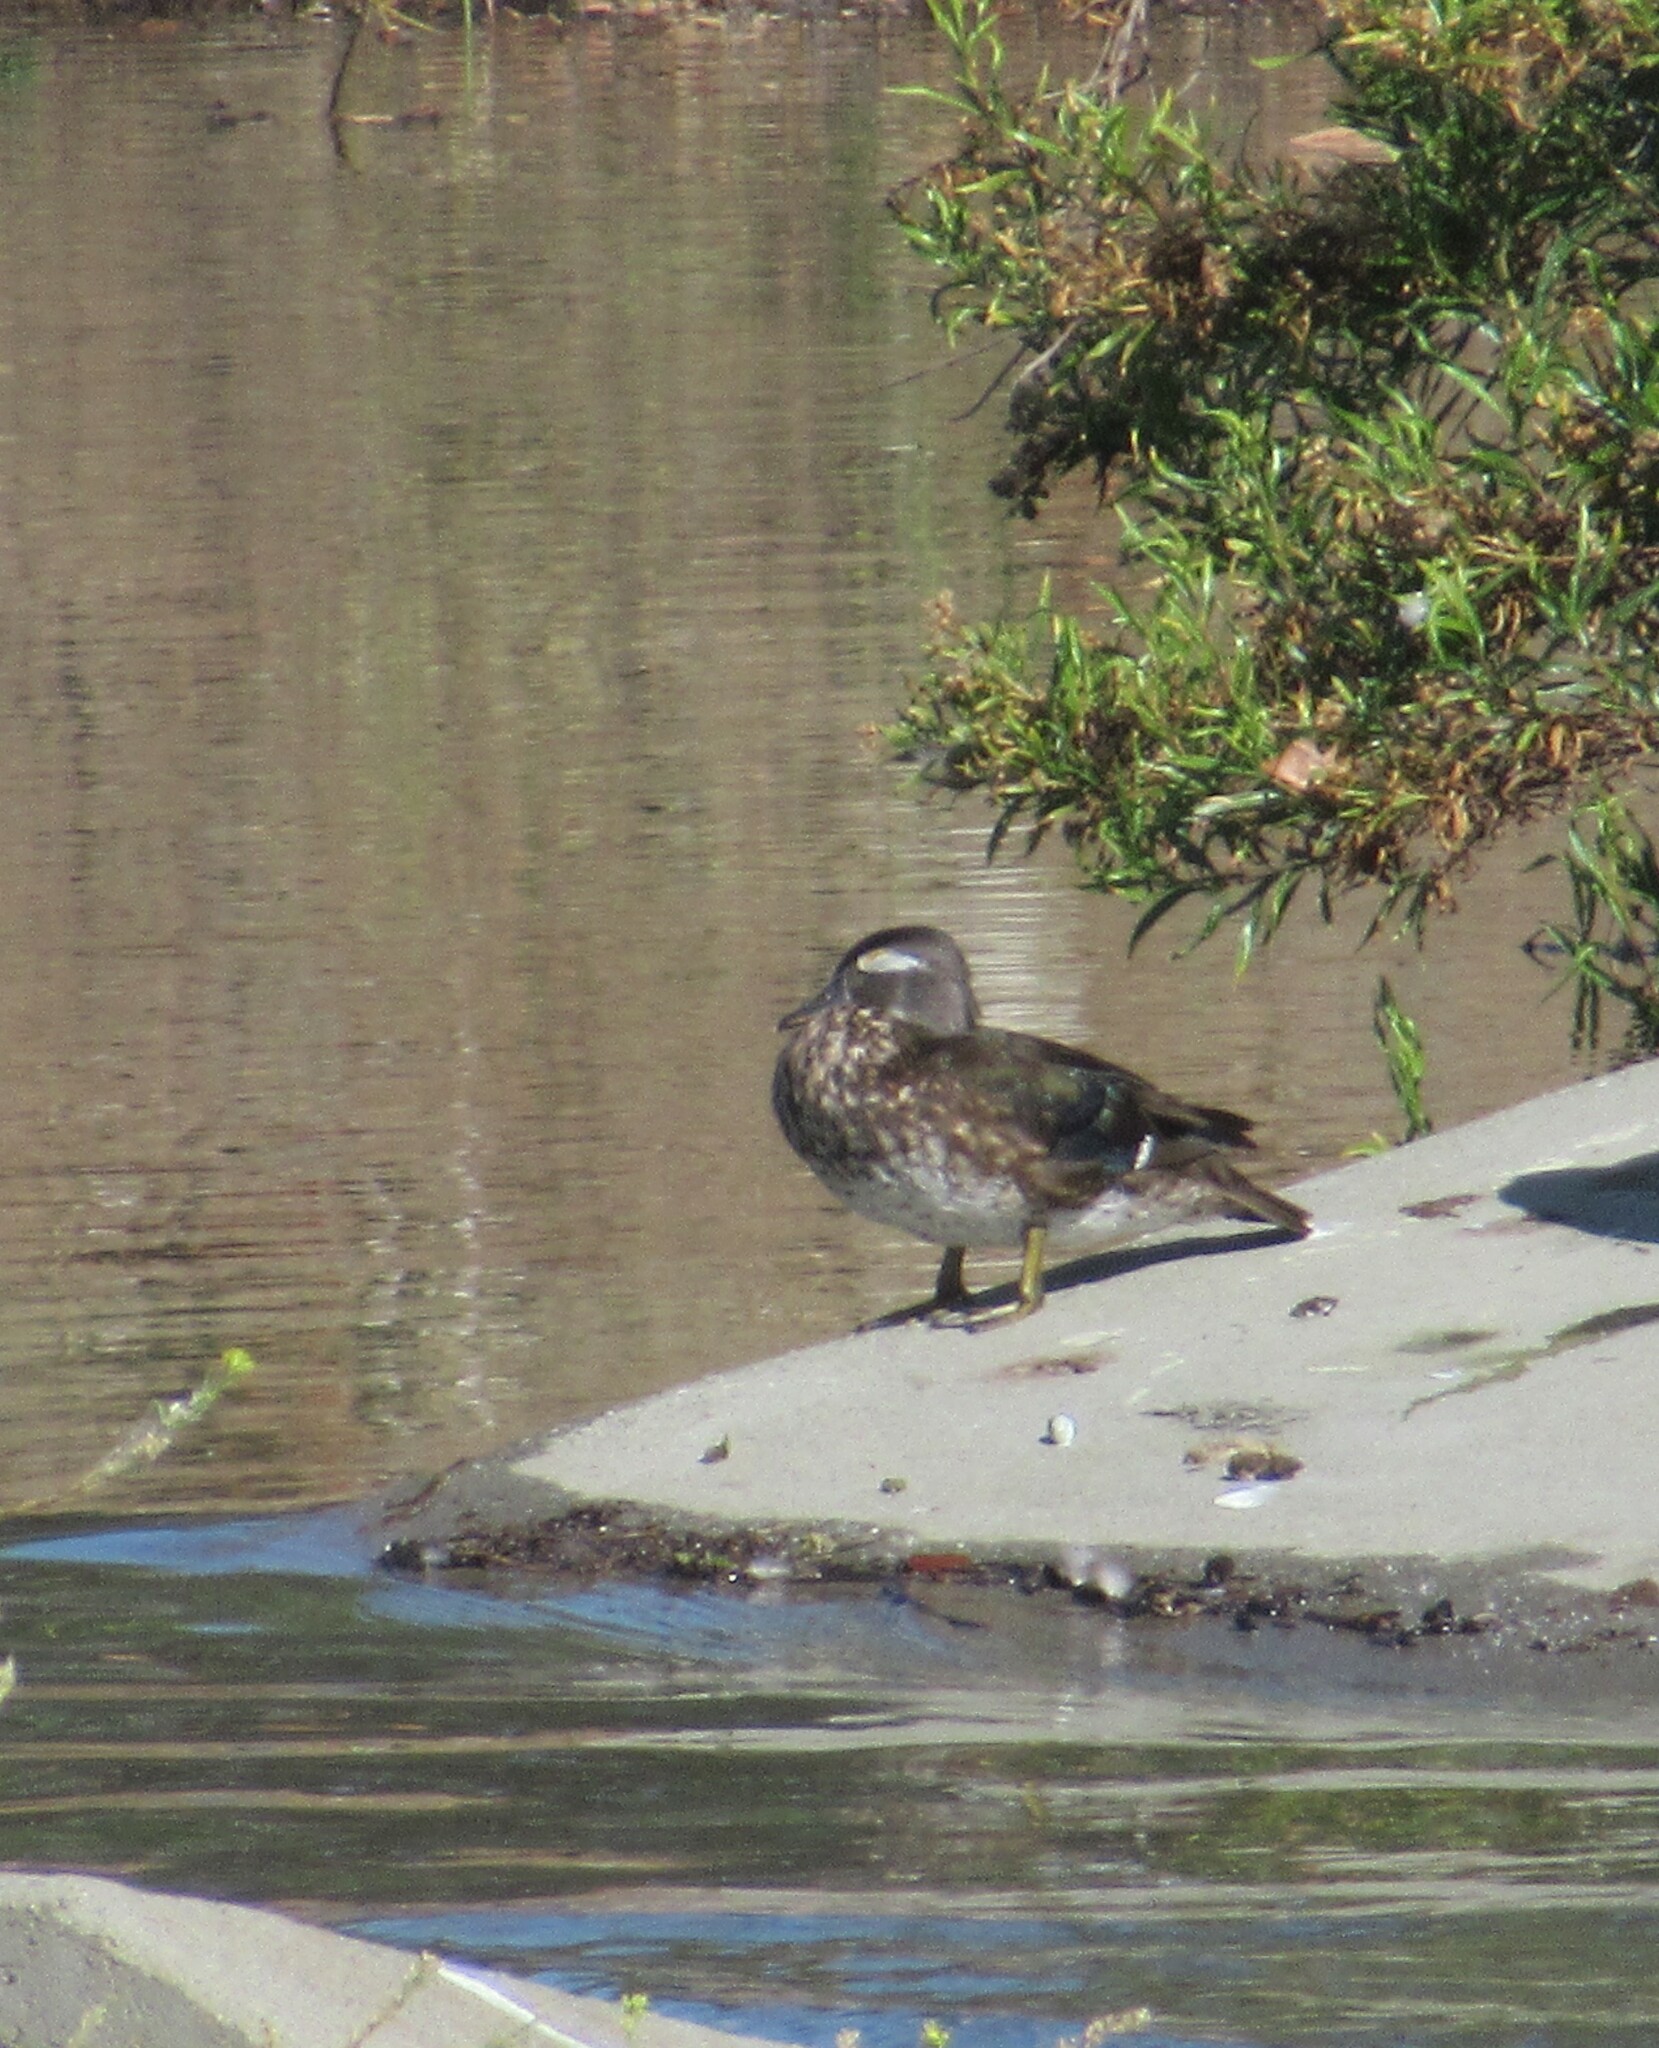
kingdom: Animalia
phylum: Chordata
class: Aves
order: Anseriformes
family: Anatidae
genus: Aix
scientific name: Aix sponsa
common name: Wood duck
